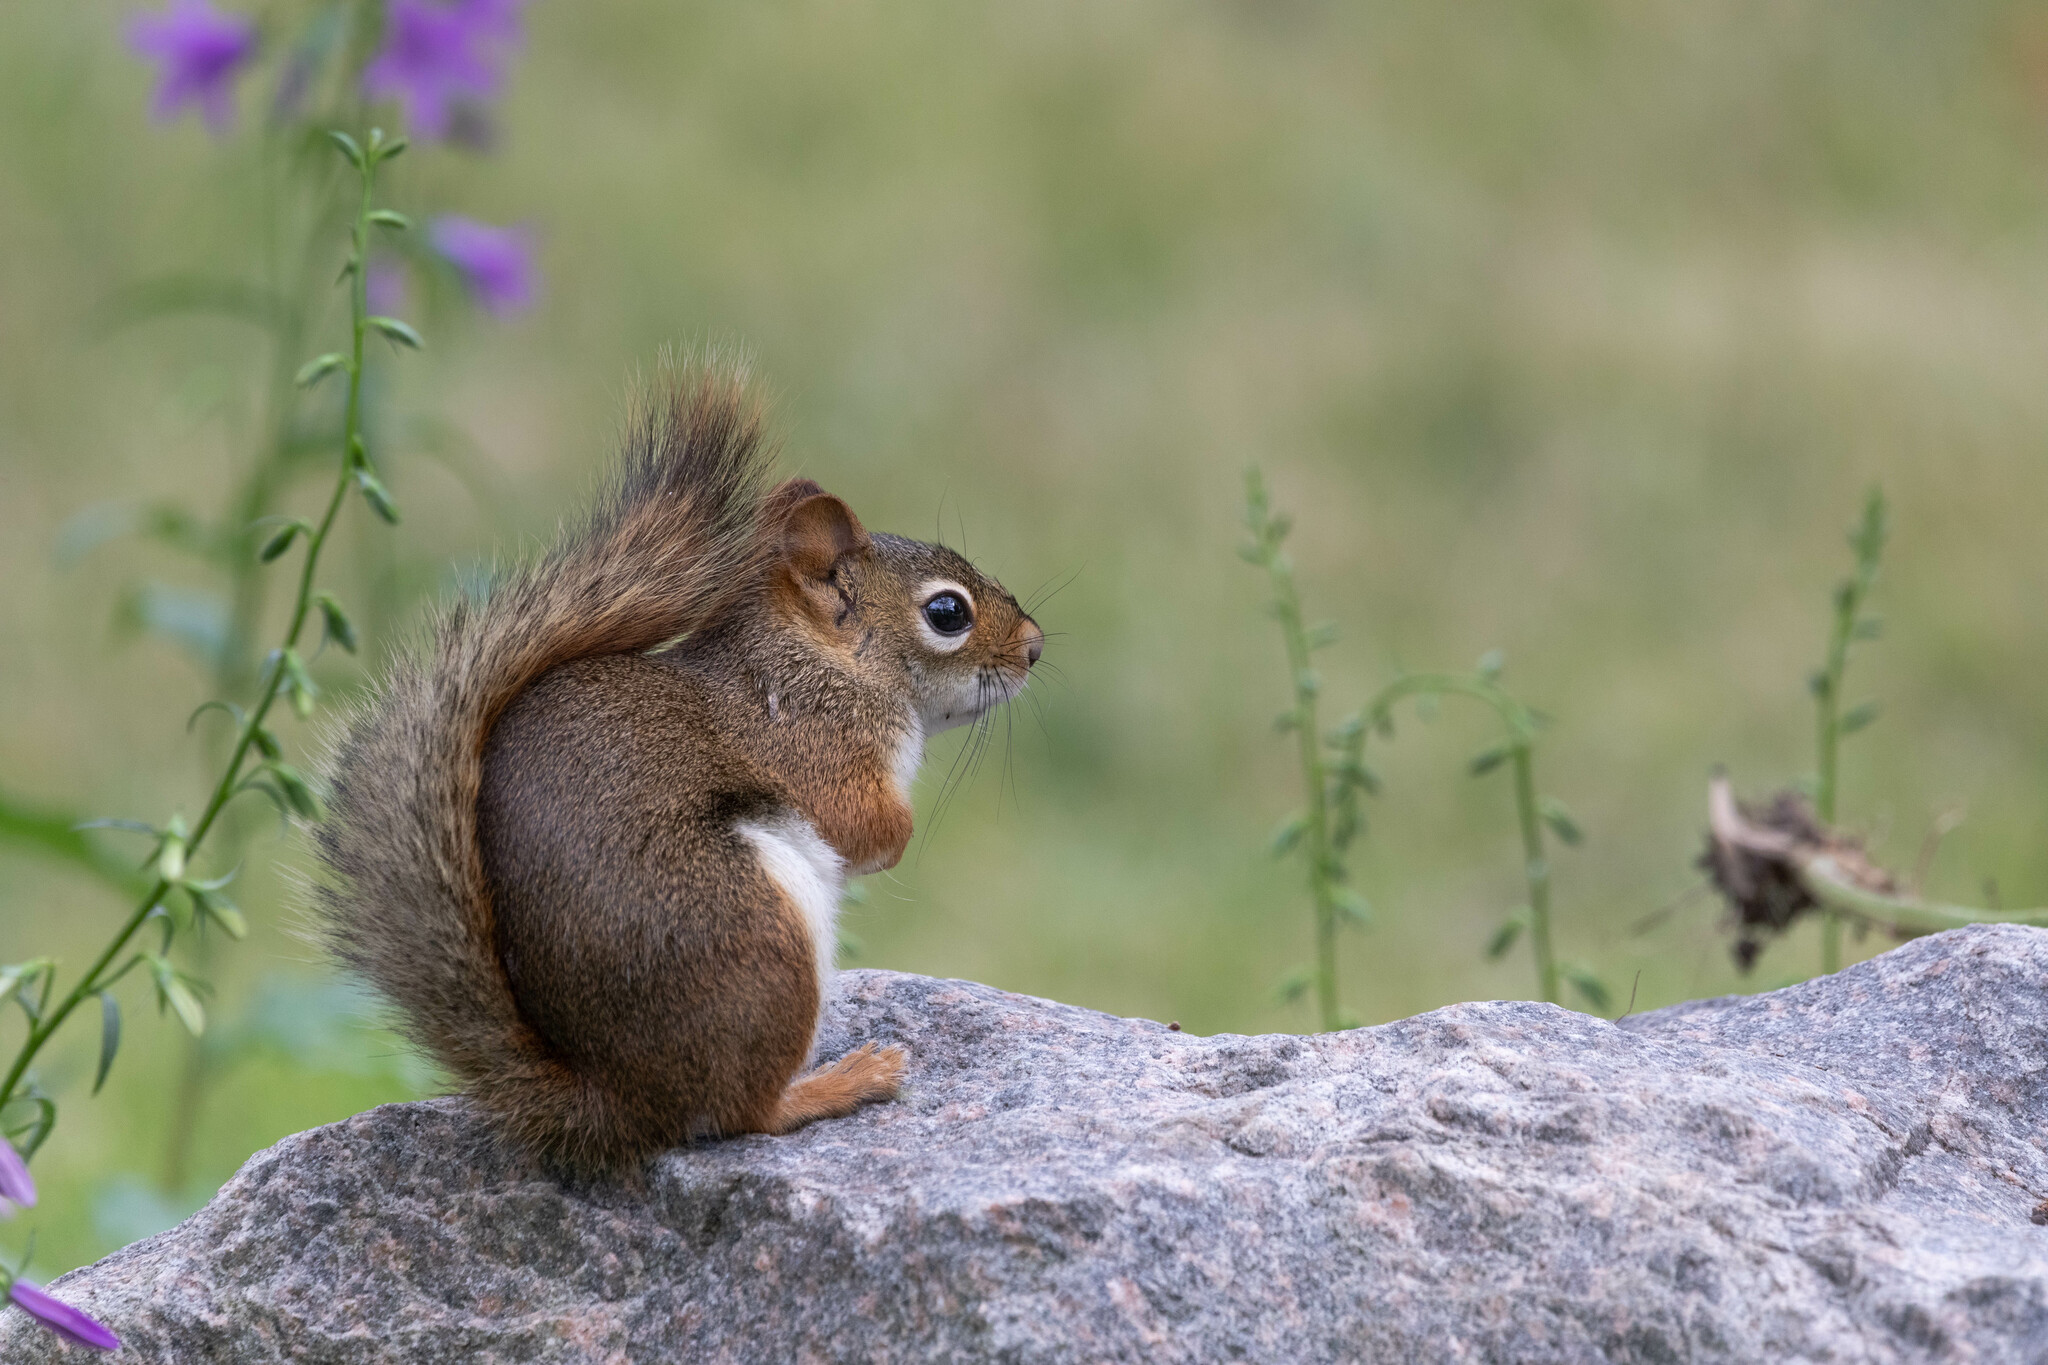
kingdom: Animalia
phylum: Chordata
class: Mammalia
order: Rodentia
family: Sciuridae
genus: Tamiasciurus
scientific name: Tamiasciurus hudsonicus
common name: Red squirrel
